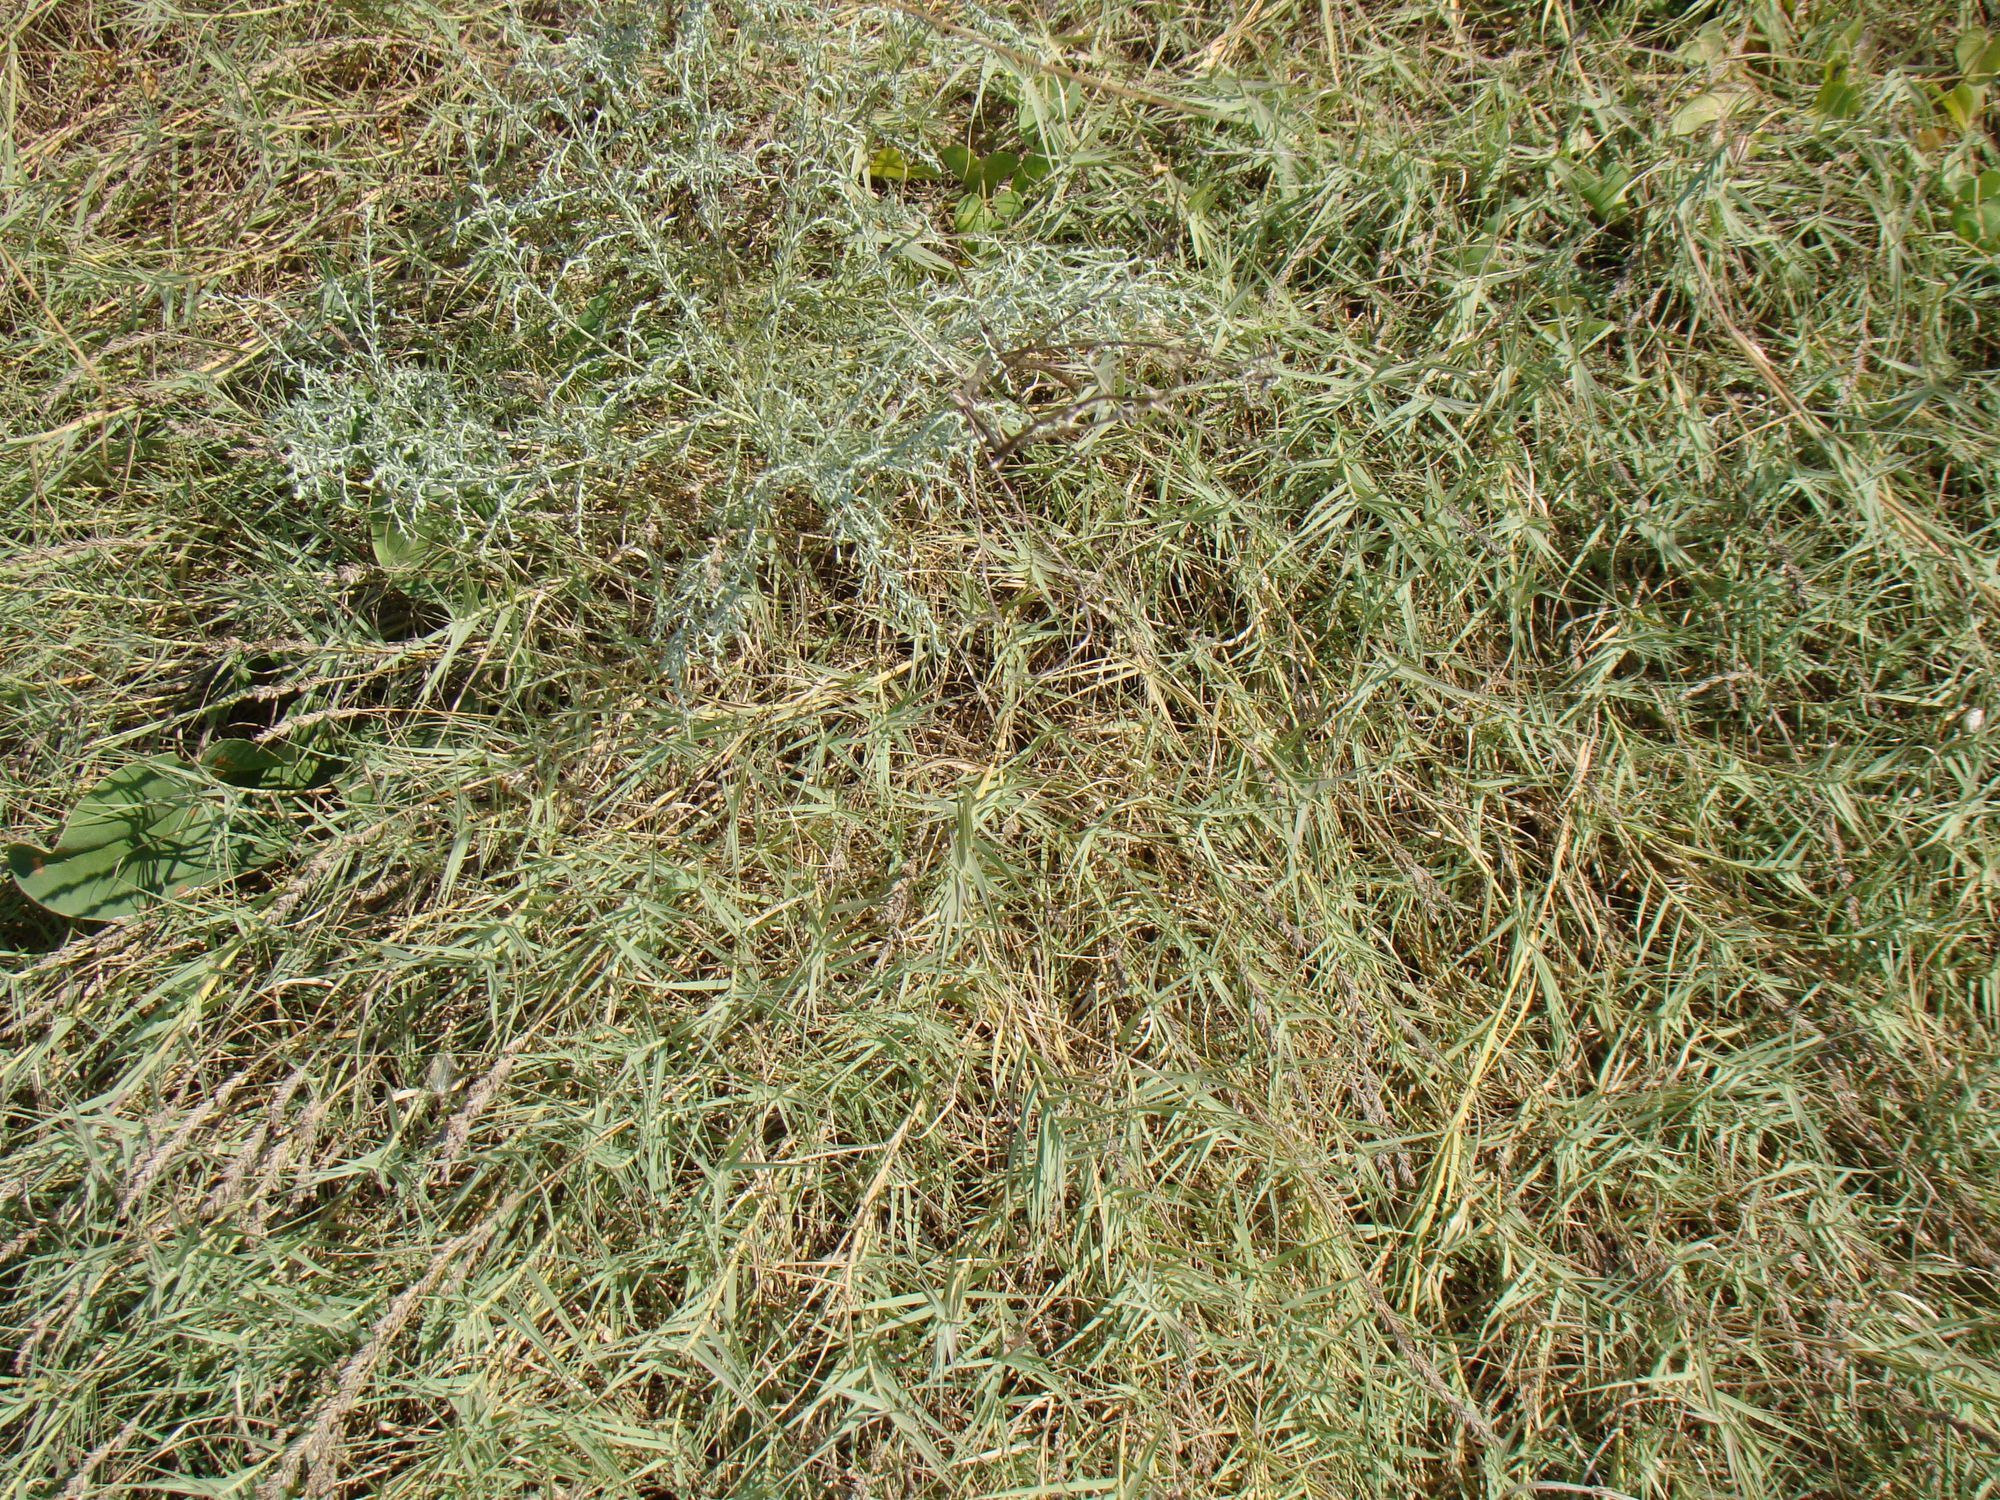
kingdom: Plantae
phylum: Tracheophyta
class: Liliopsida
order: Poales
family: Poaceae
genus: Aeluropus
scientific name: Aeluropus littoralis
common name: Indian walnut
